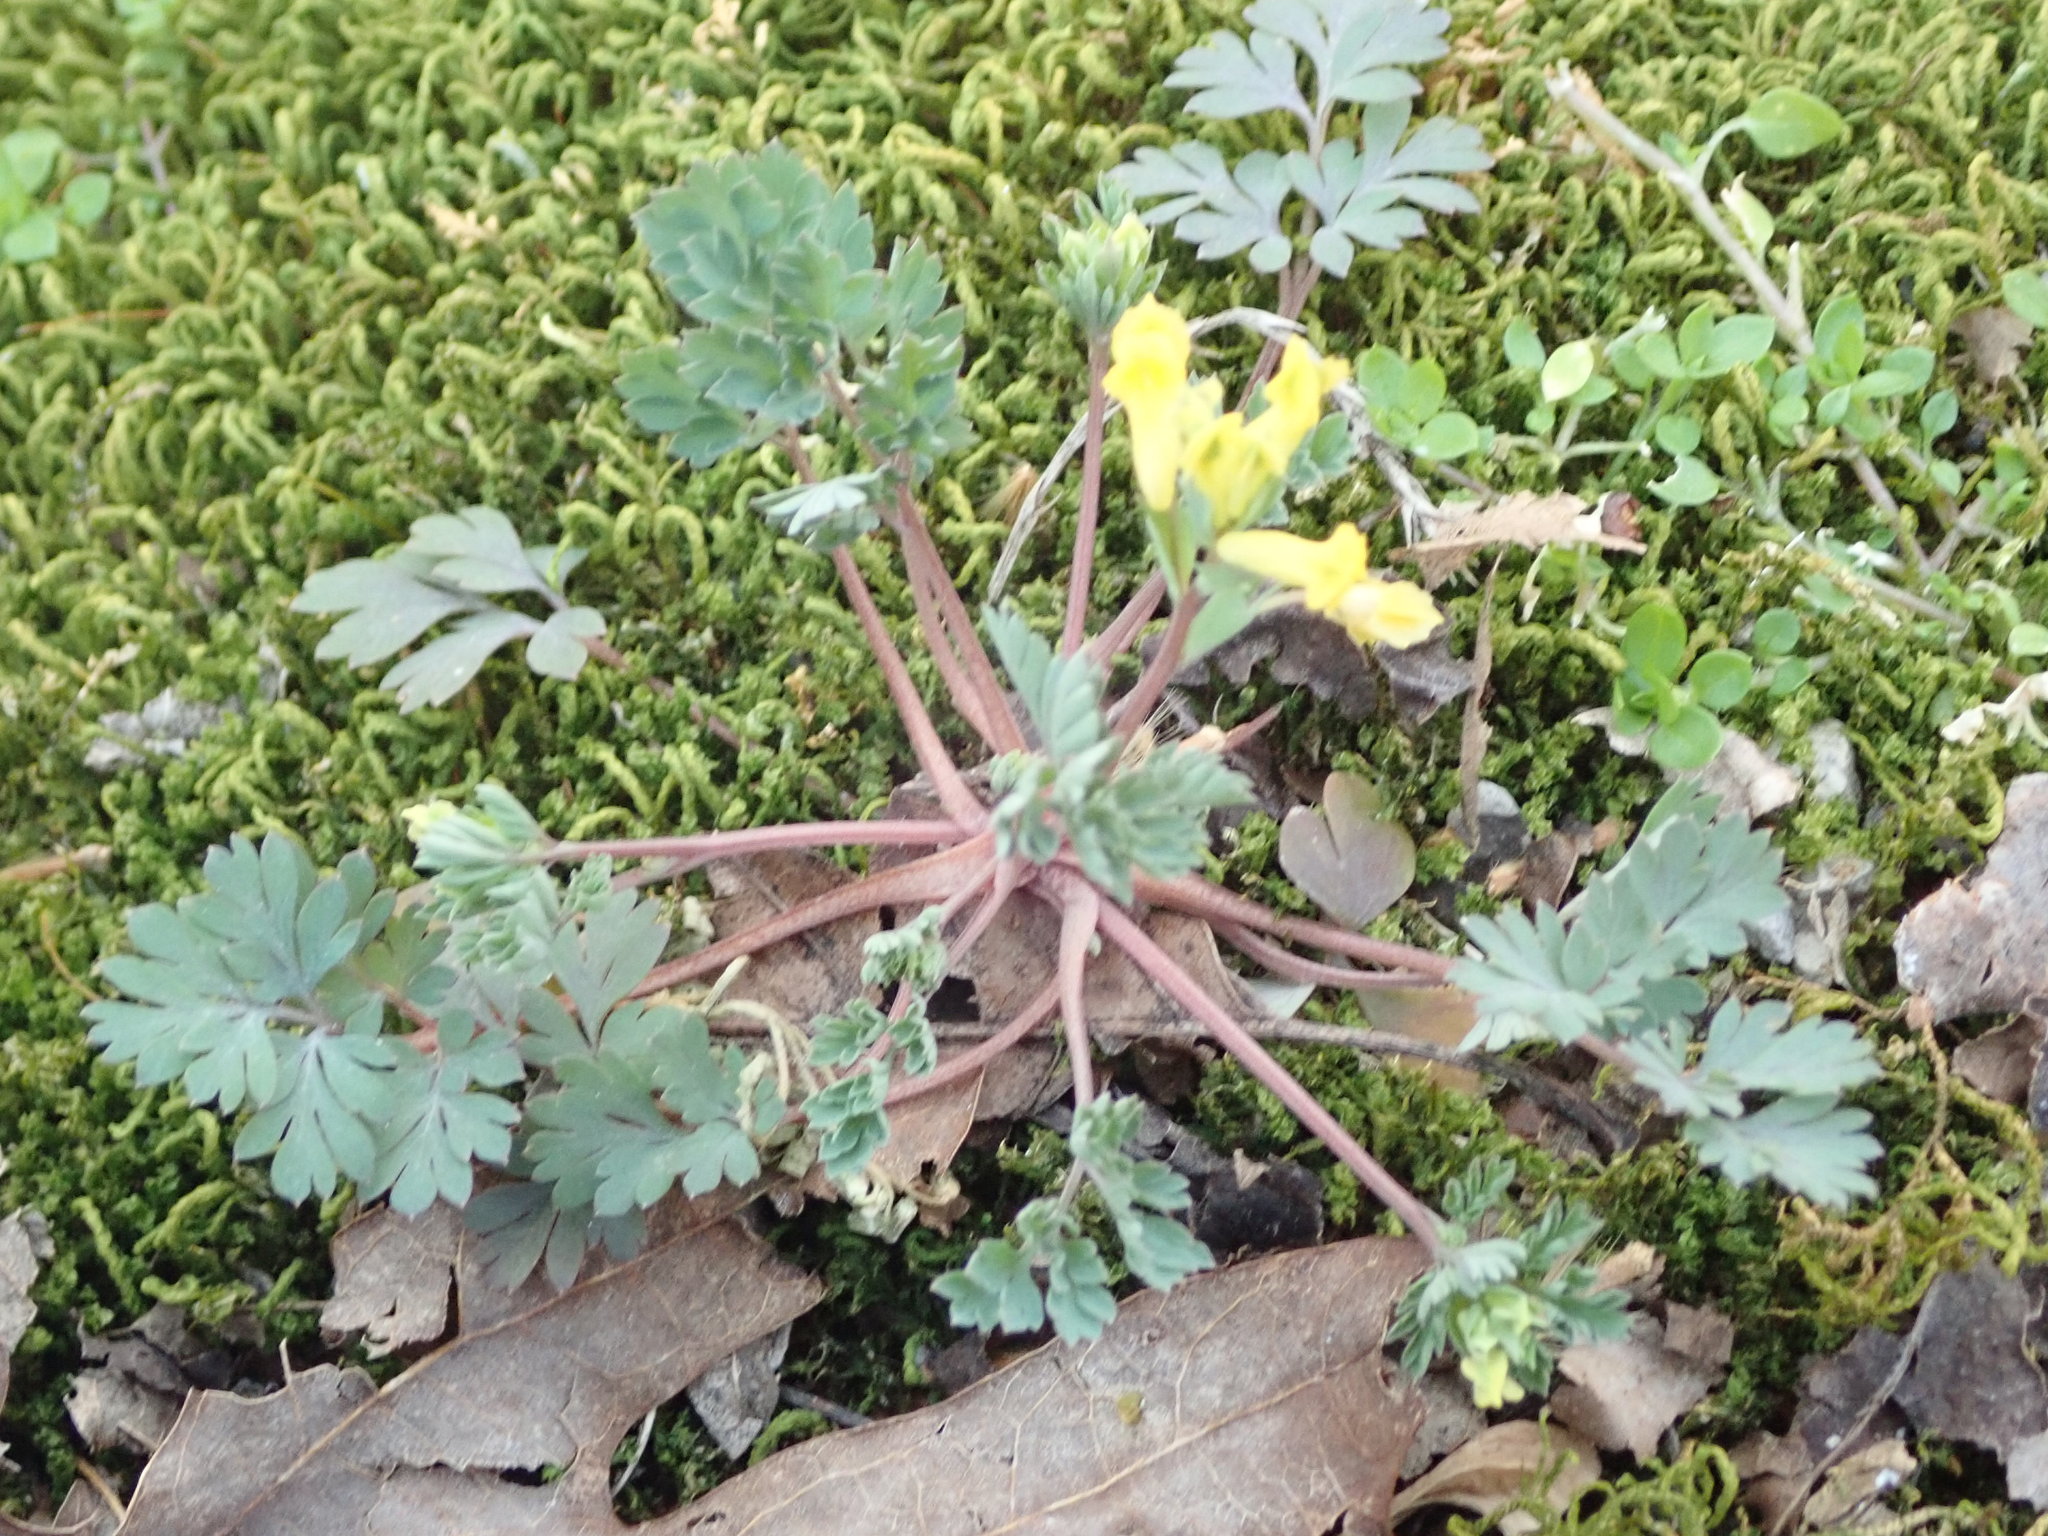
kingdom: Plantae
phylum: Tracheophyta
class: Magnoliopsida
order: Ranunculales
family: Papaveraceae
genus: Corydalis
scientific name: Corydalis flavula
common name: Yellow corydalis
